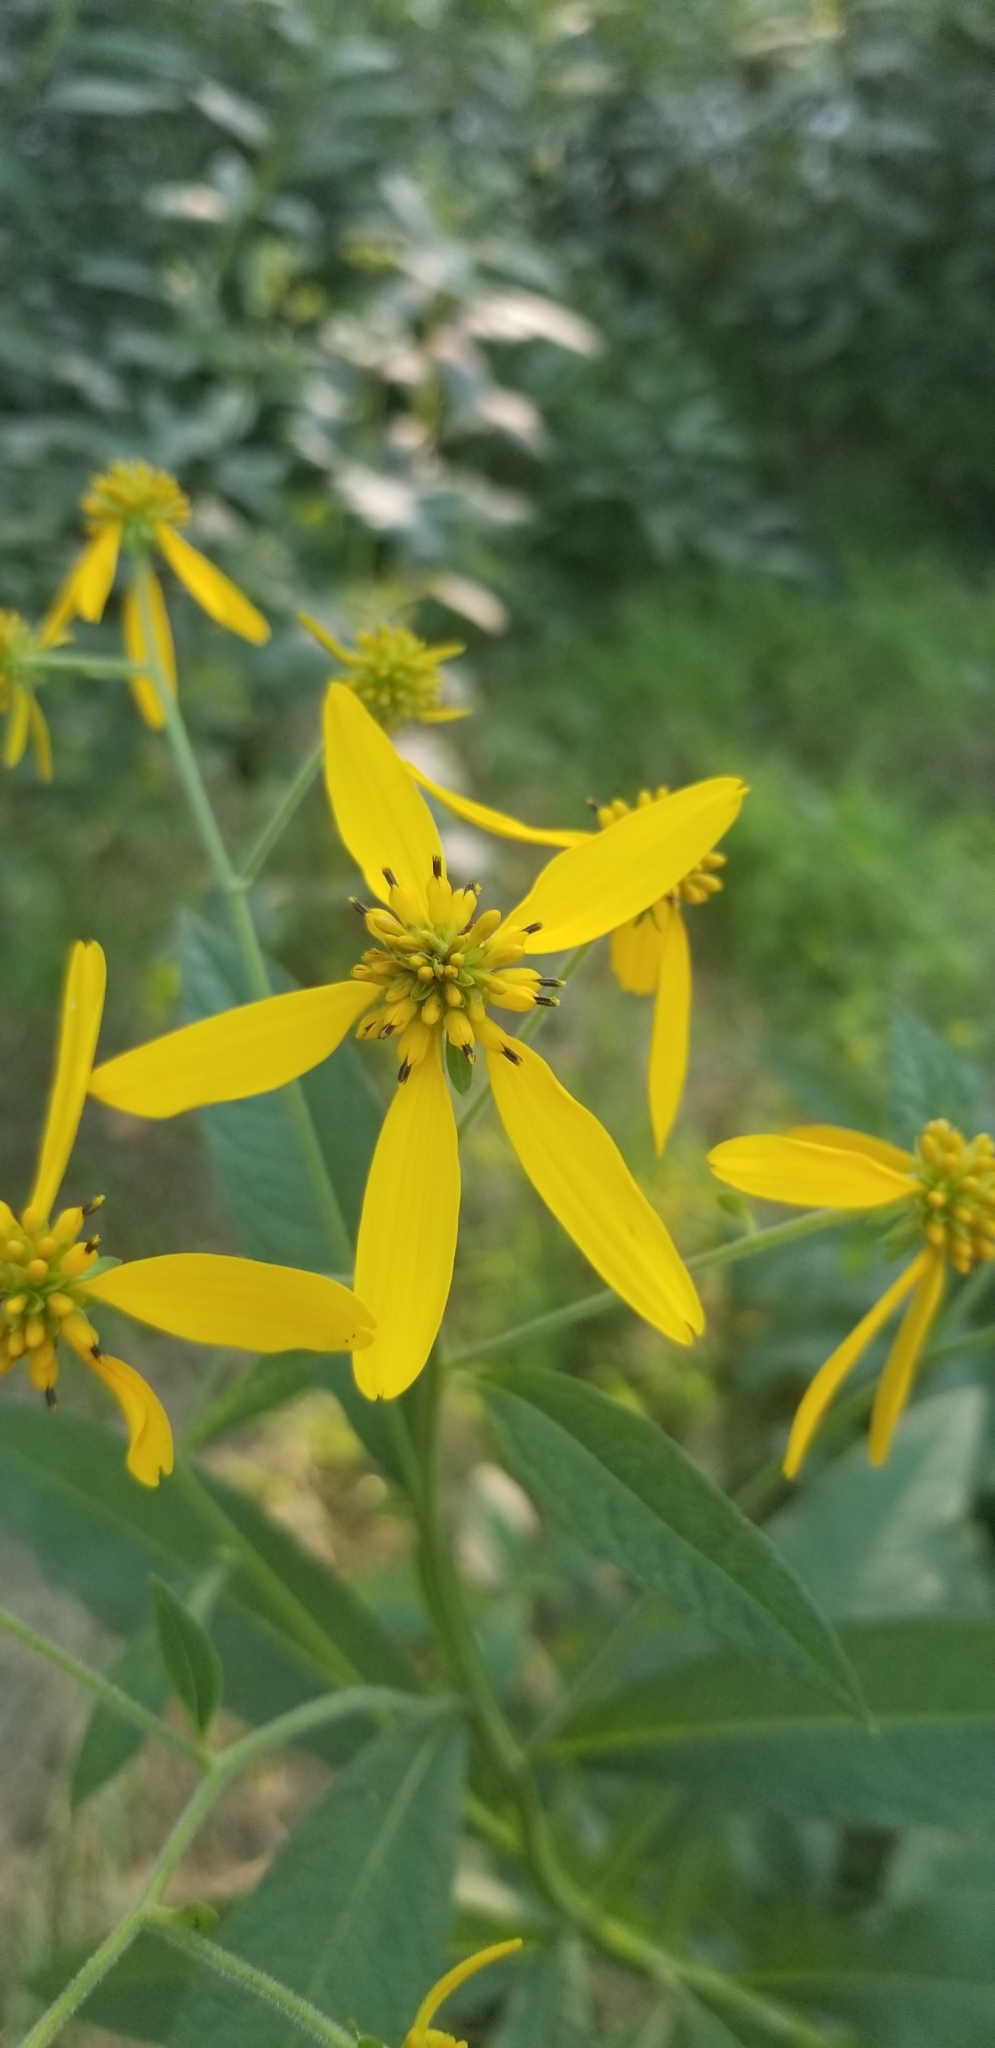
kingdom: Plantae
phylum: Tracheophyta
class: Magnoliopsida
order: Asterales
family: Asteraceae
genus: Verbesina
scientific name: Verbesina alternifolia
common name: Wingstem
